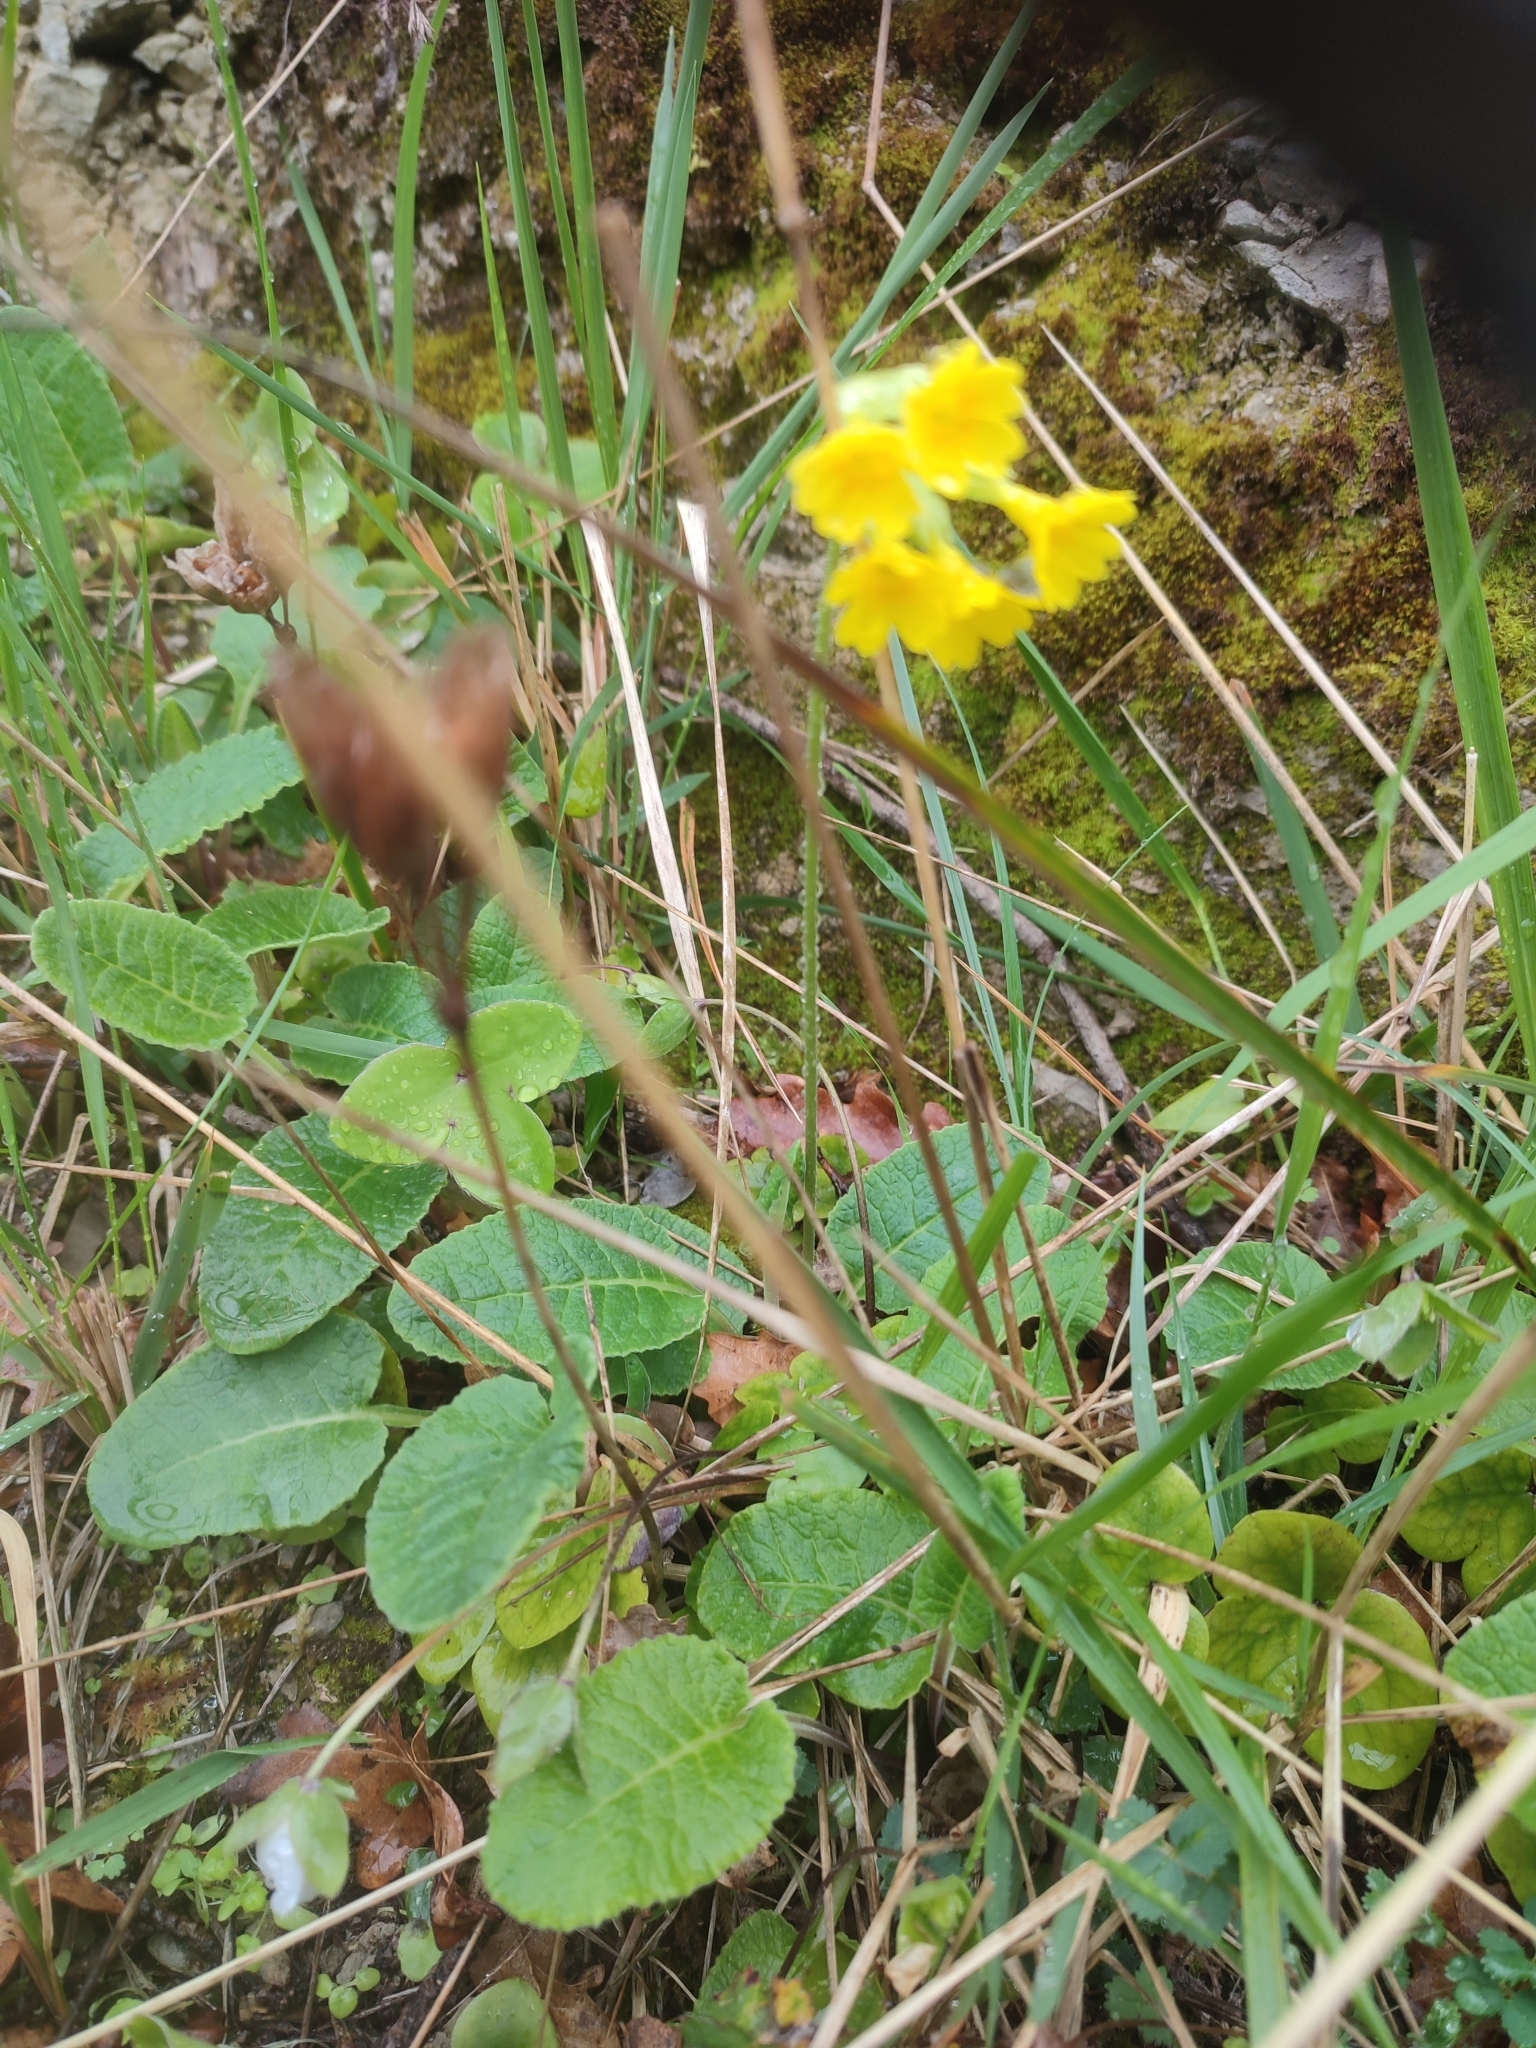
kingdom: Plantae
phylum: Tracheophyta
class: Magnoliopsida
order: Ericales
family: Primulaceae
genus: Primula
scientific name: Primula veris
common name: Cowslip
